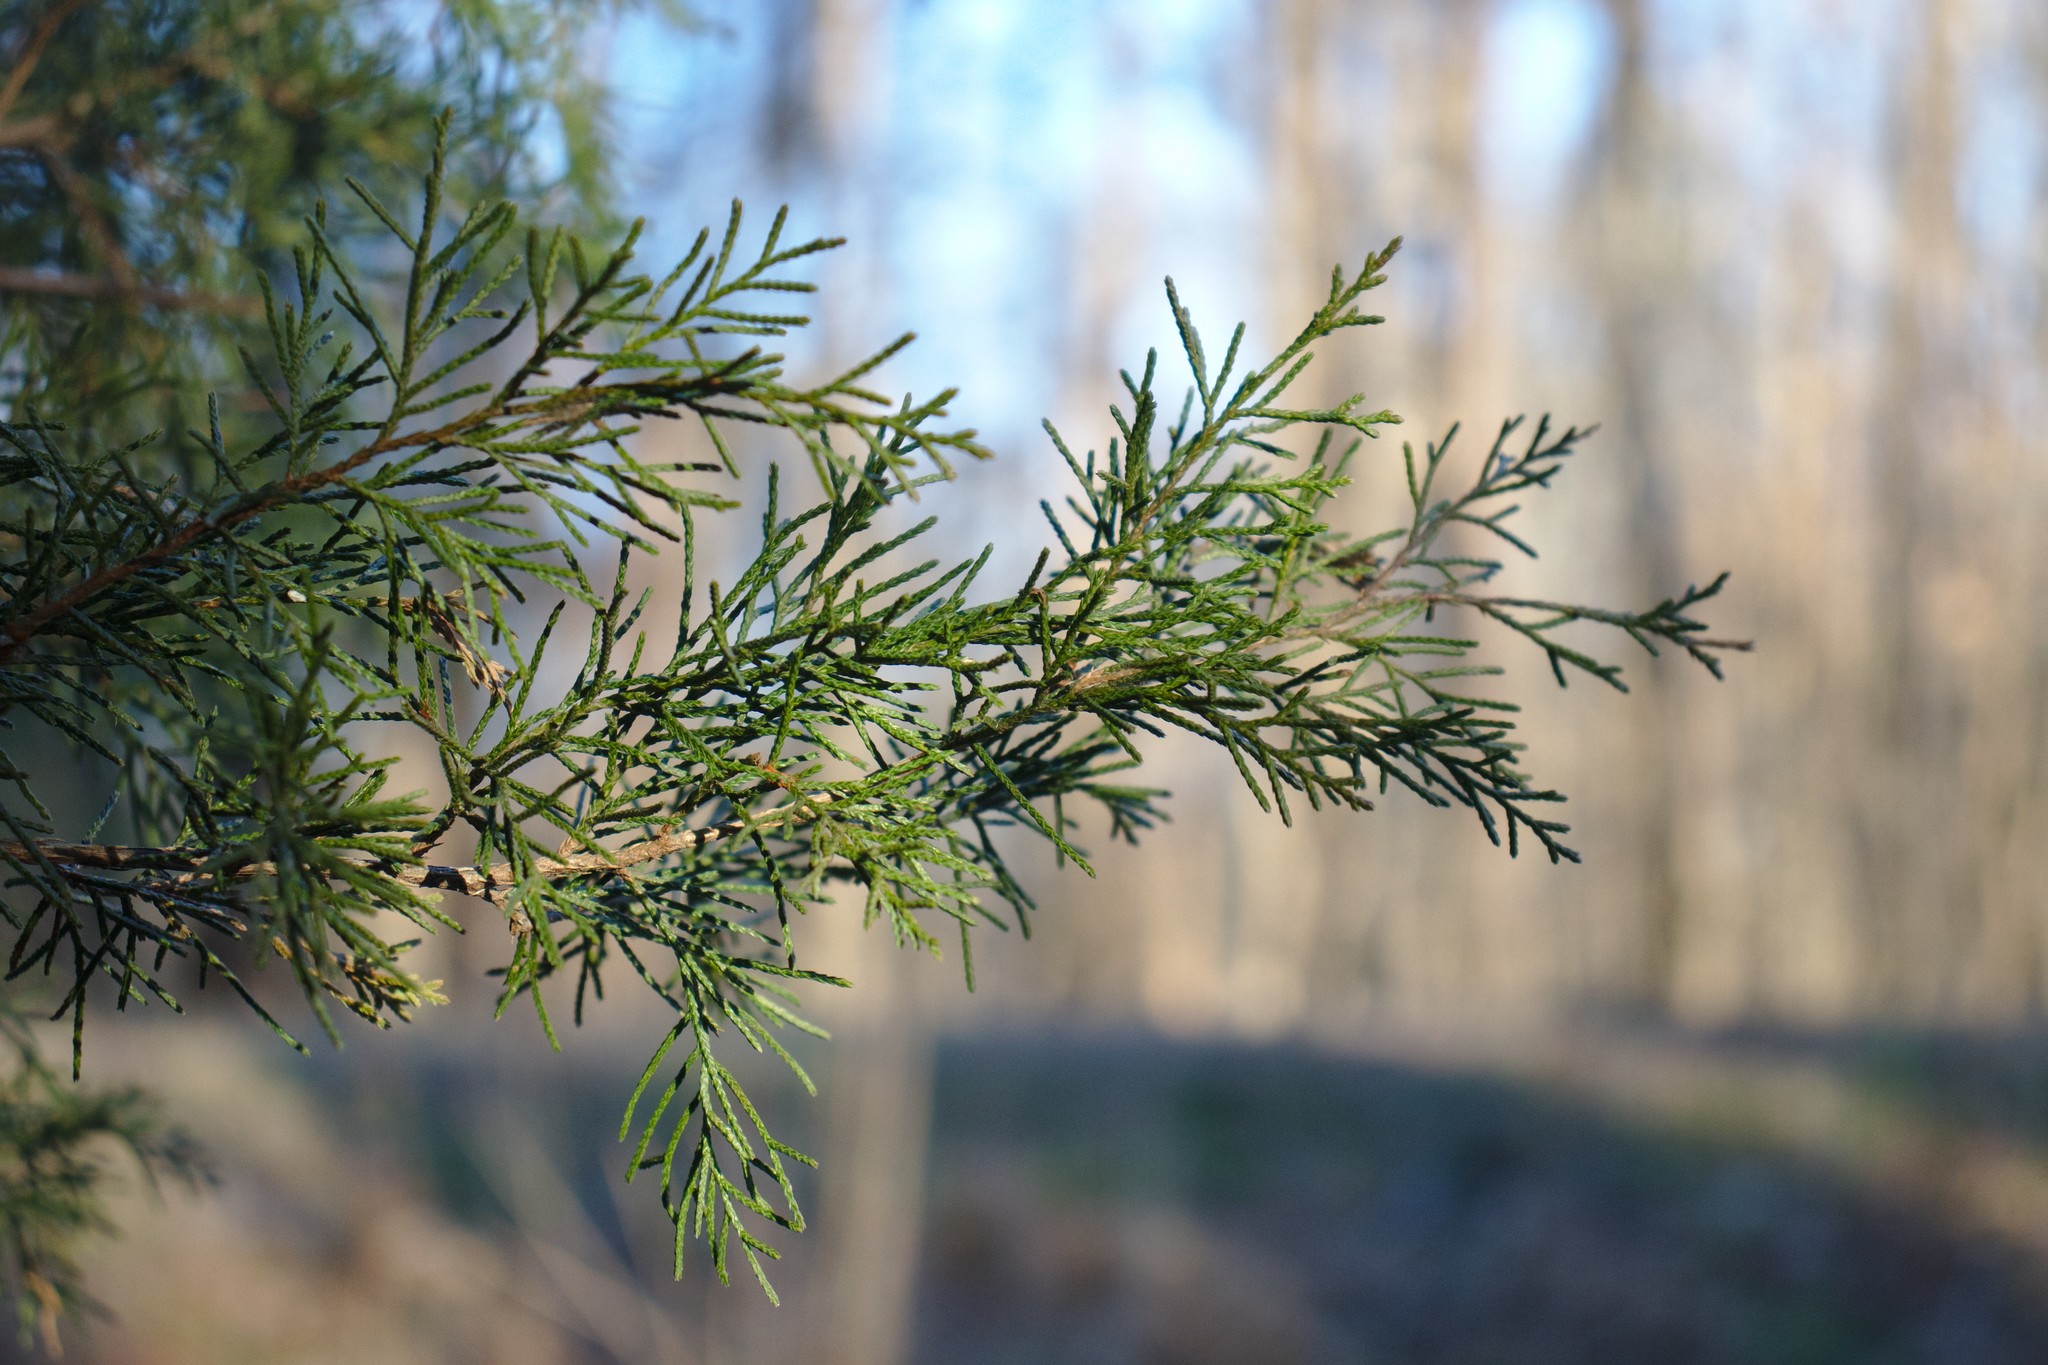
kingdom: Plantae
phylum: Tracheophyta
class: Pinopsida
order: Pinales
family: Cupressaceae
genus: Juniperus
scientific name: Juniperus virginiana
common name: Red juniper
